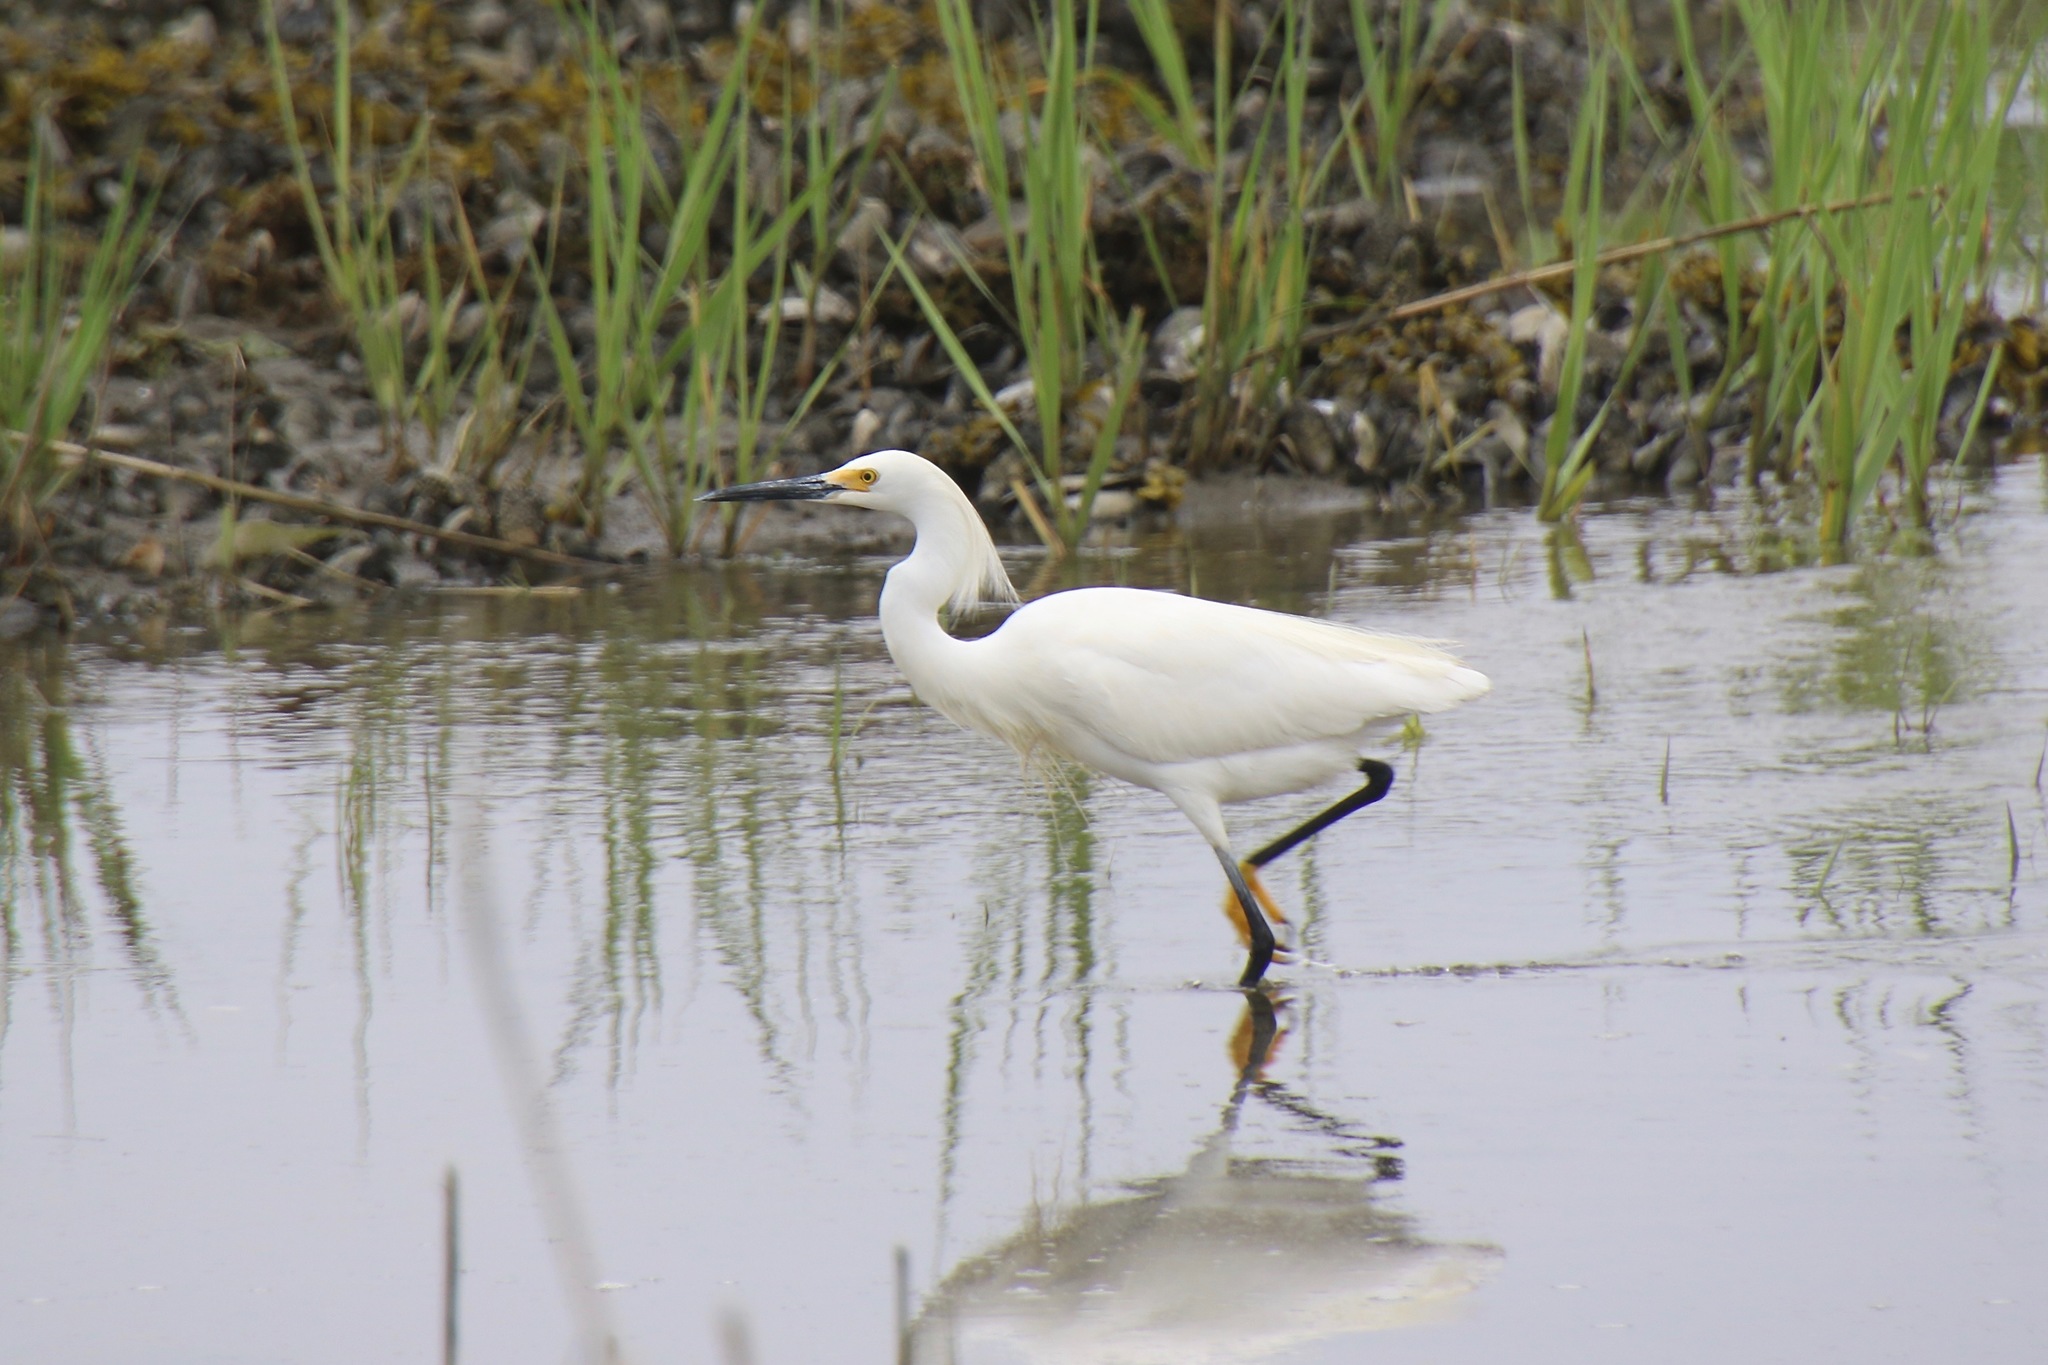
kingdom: Animalia
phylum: Chordata
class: Aves
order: Pelecaniformes
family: Ardeidae
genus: Egretta
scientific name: Egretta thula
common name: Snowy egret
